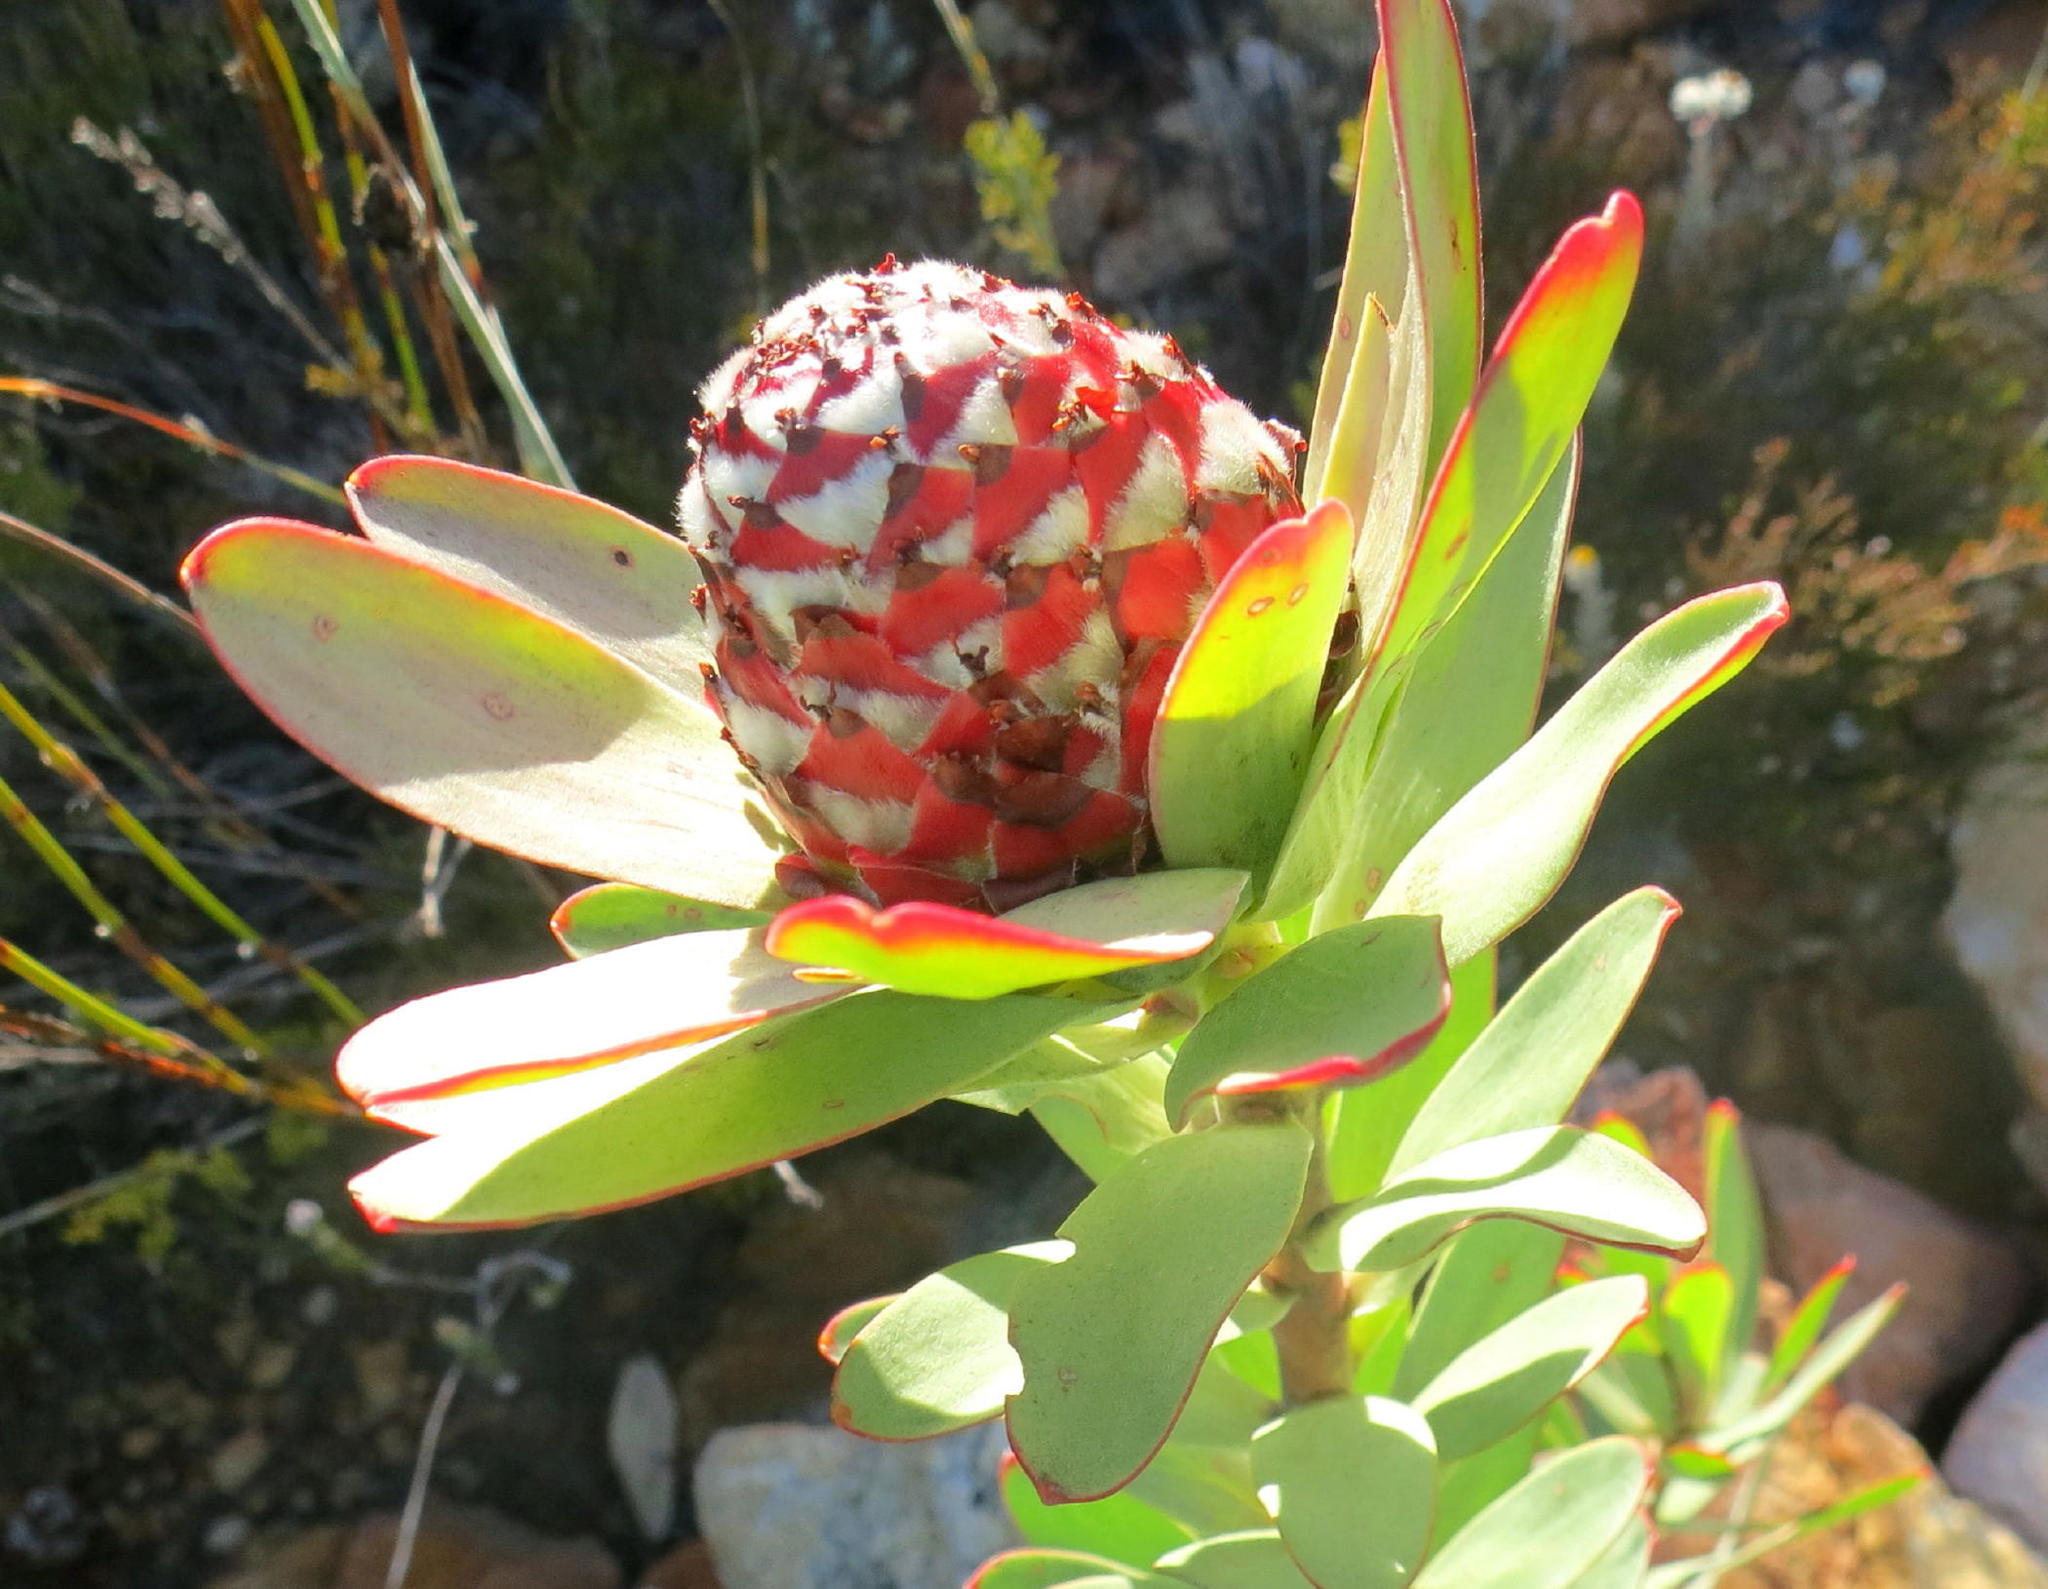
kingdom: Plantae
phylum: Tracheophyta
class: Magnoliopsida
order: Proteales
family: Proteaceae
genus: Leucadendron
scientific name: Leucadendron barkerae
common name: Swartberg conebush
